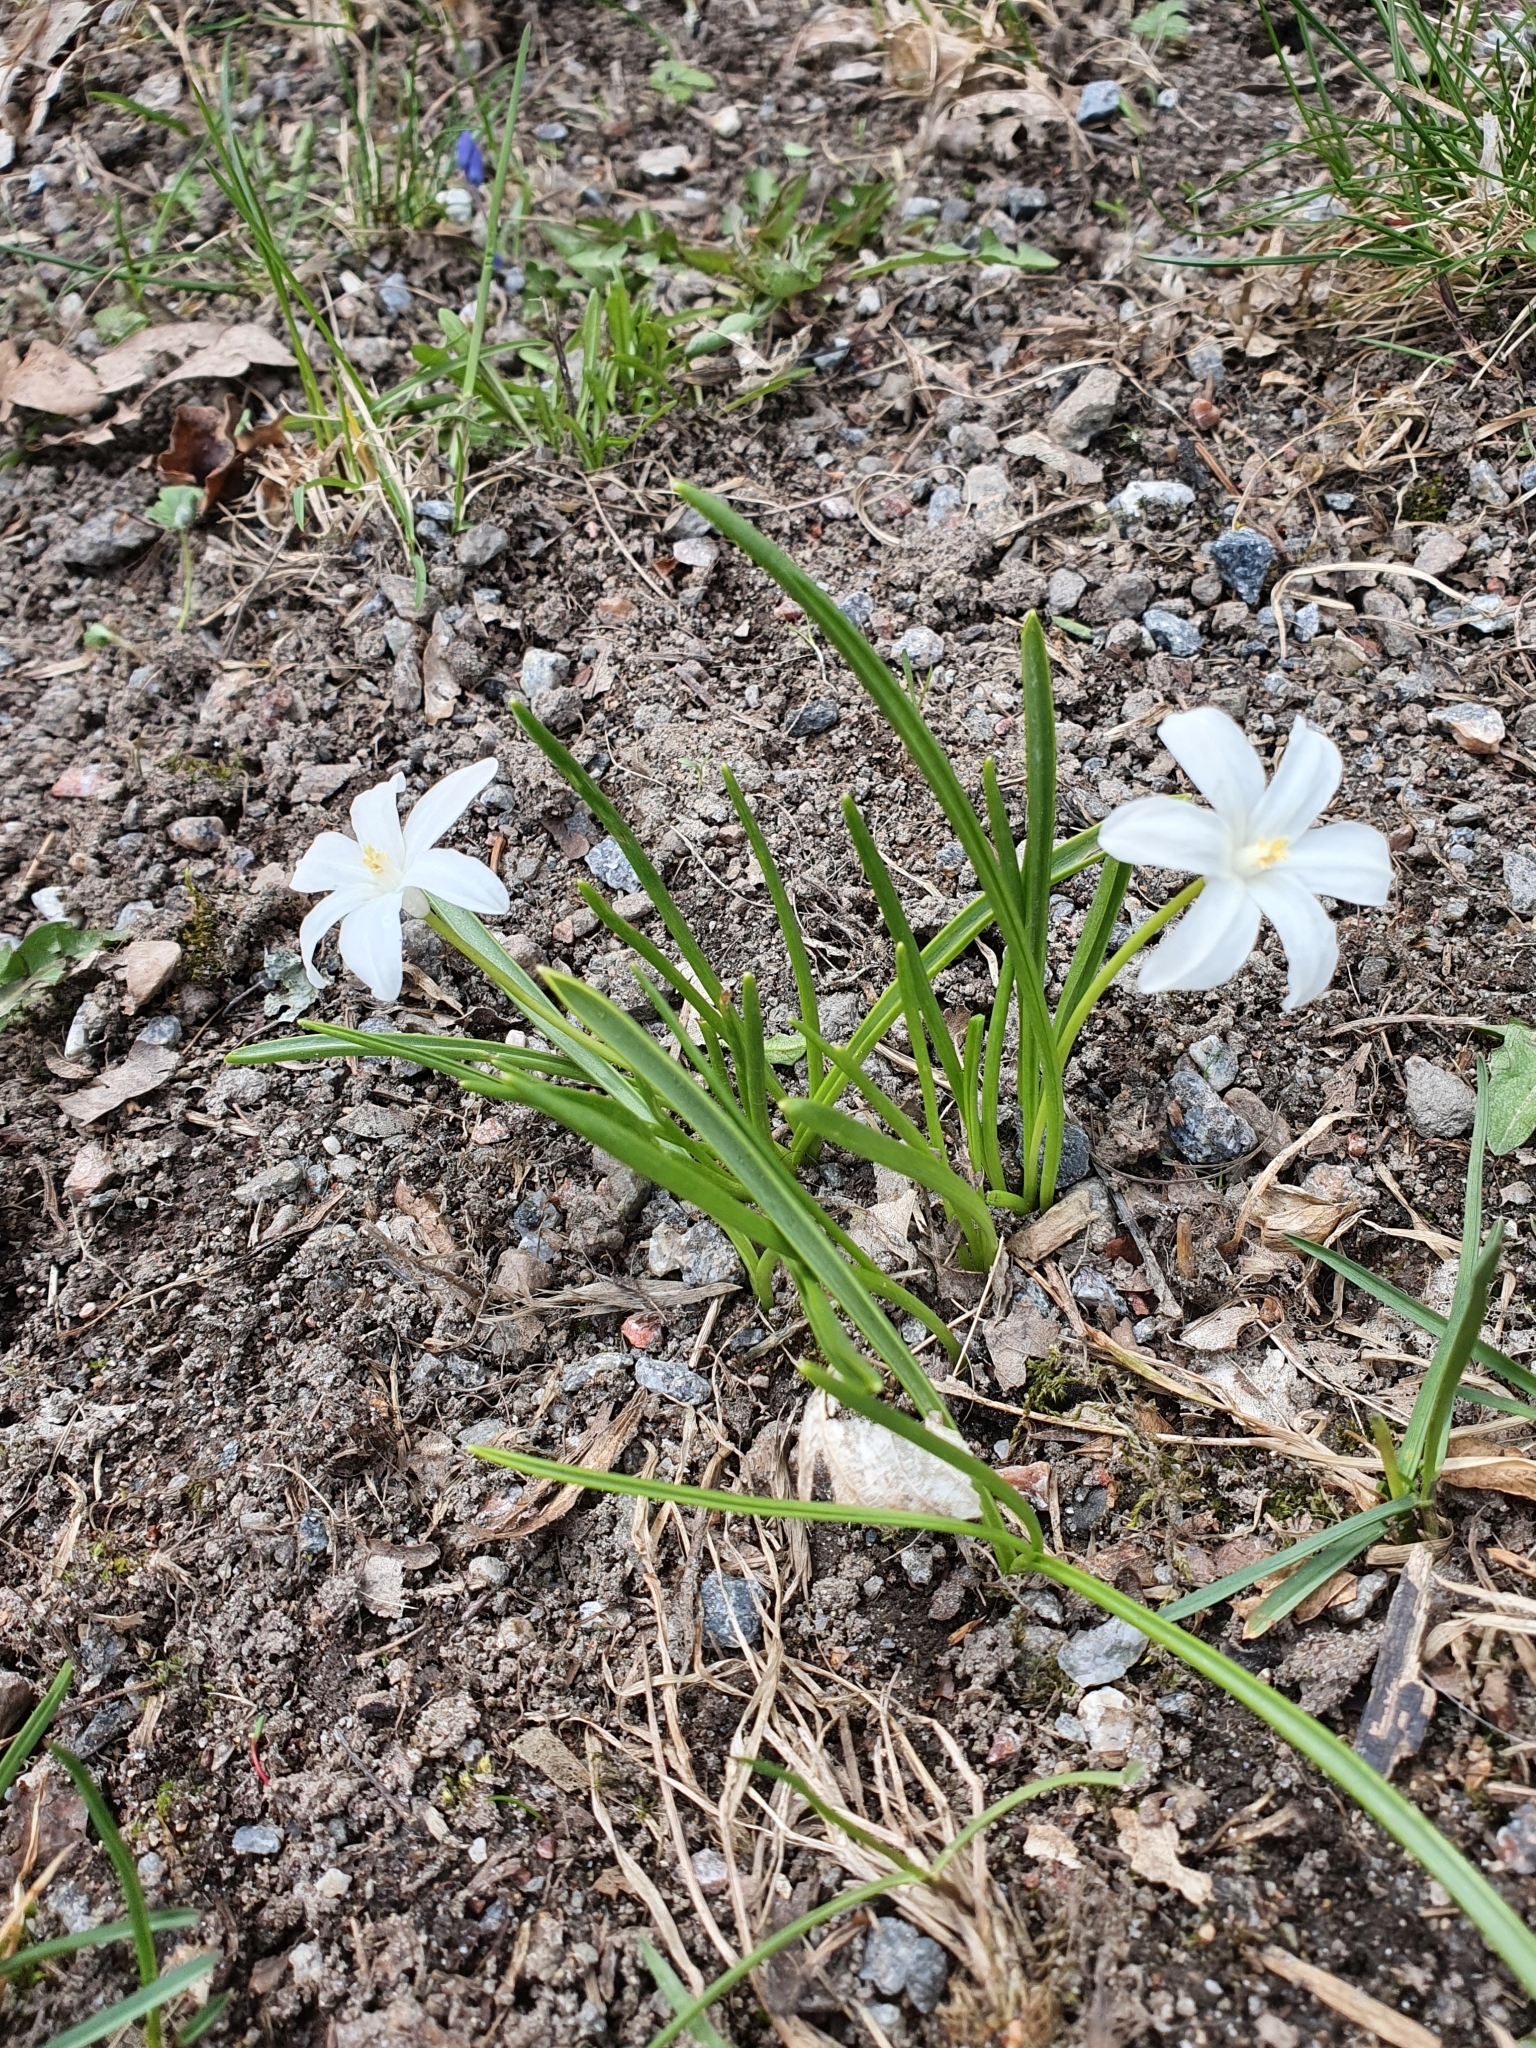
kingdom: Plantae
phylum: Tracheophyta
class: Liliopsida
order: Asparagales
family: Asparagaceae
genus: Scilla
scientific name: Scilla luciliae
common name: Boissier's glory-of-the-snow
